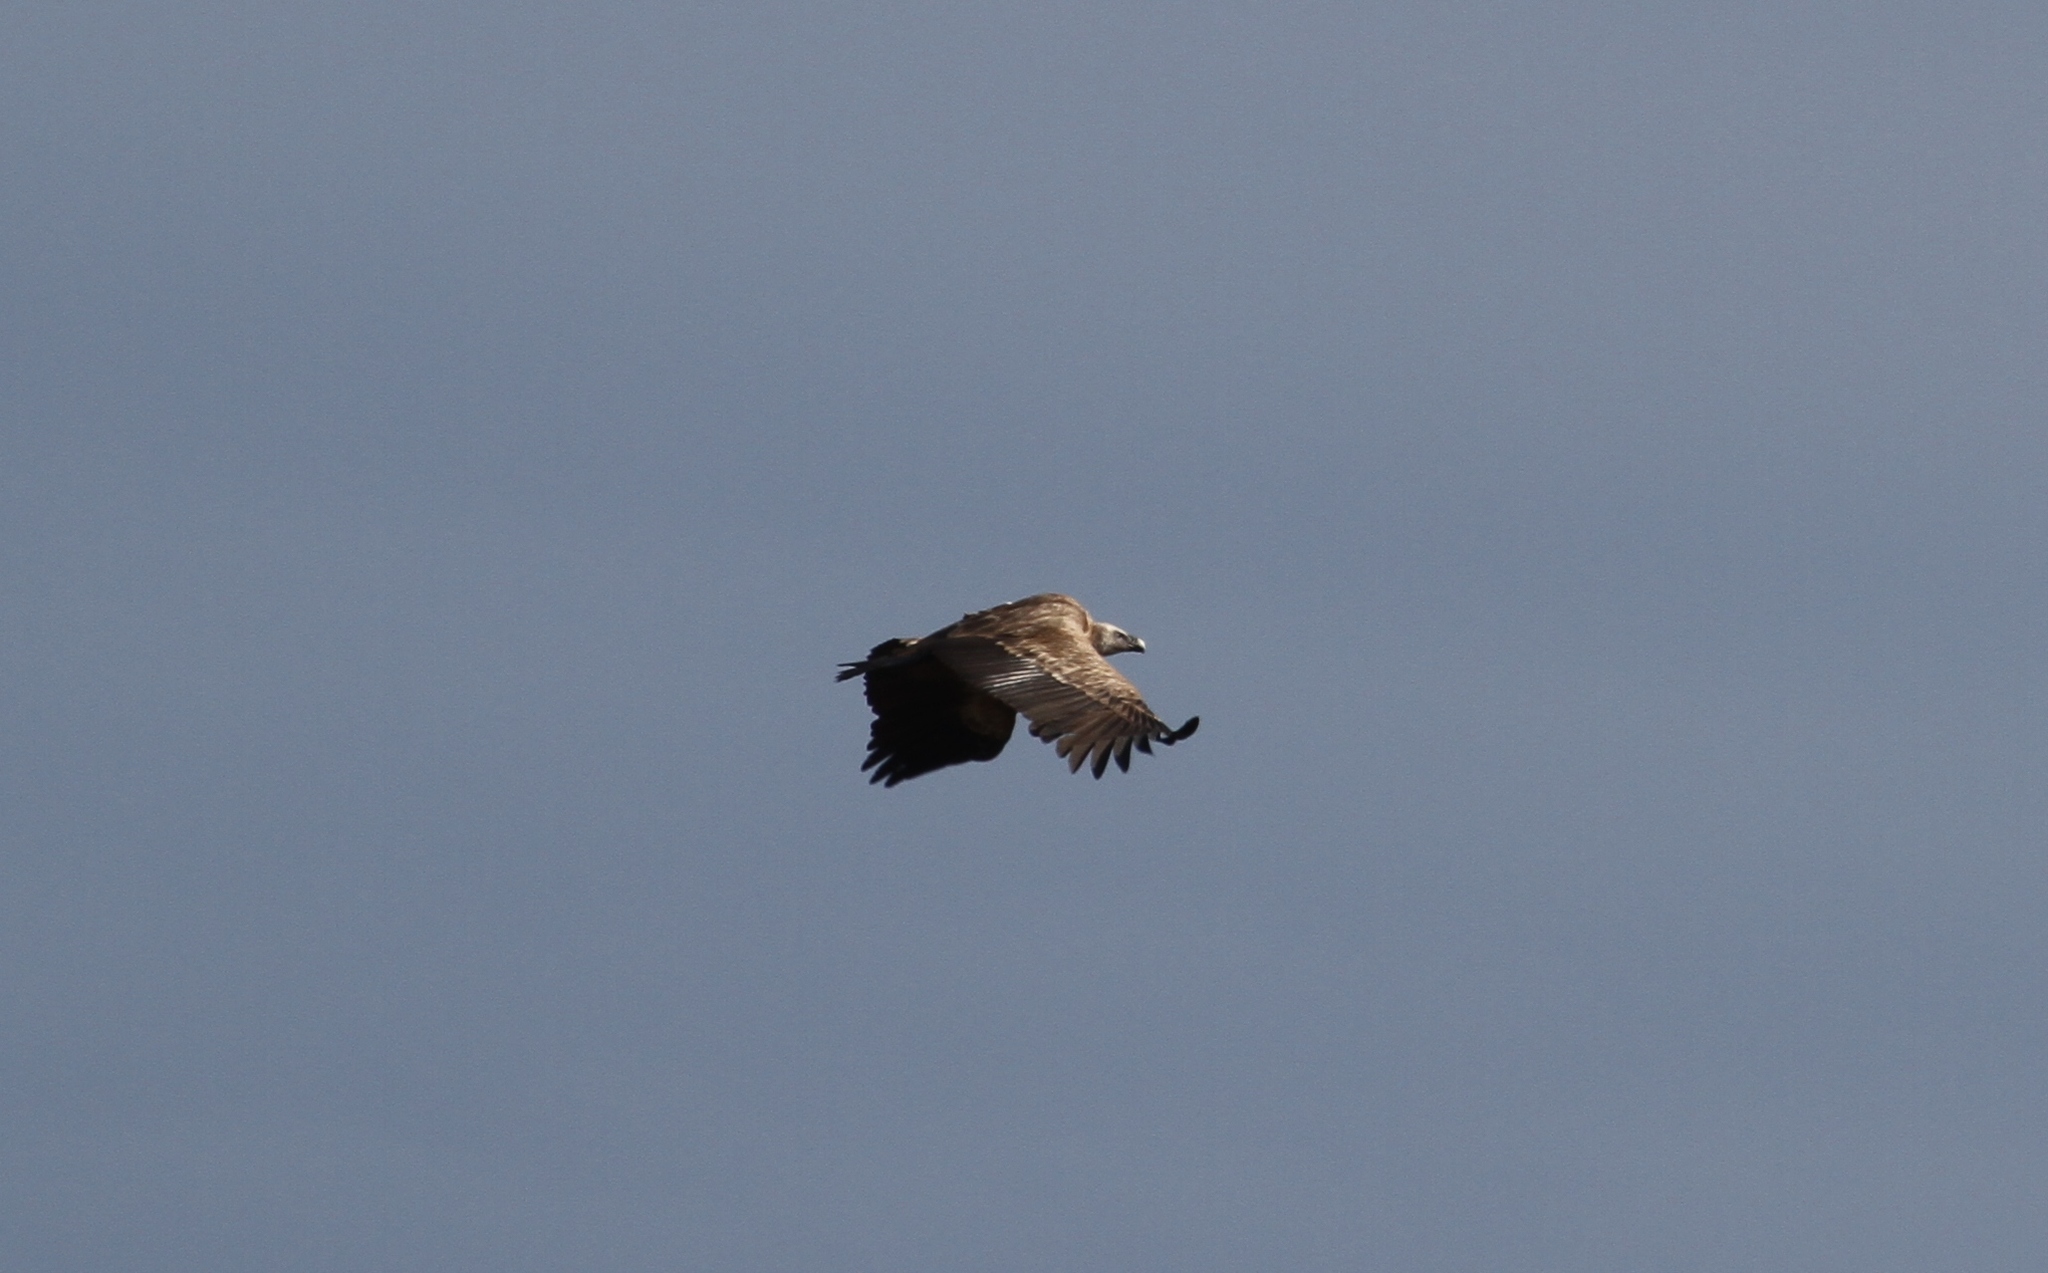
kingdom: Animalia
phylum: Chordata
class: Aves
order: Accipitriformes
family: Accipitridae
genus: Gyps
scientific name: Gyps fulvus
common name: Griffon vulture
